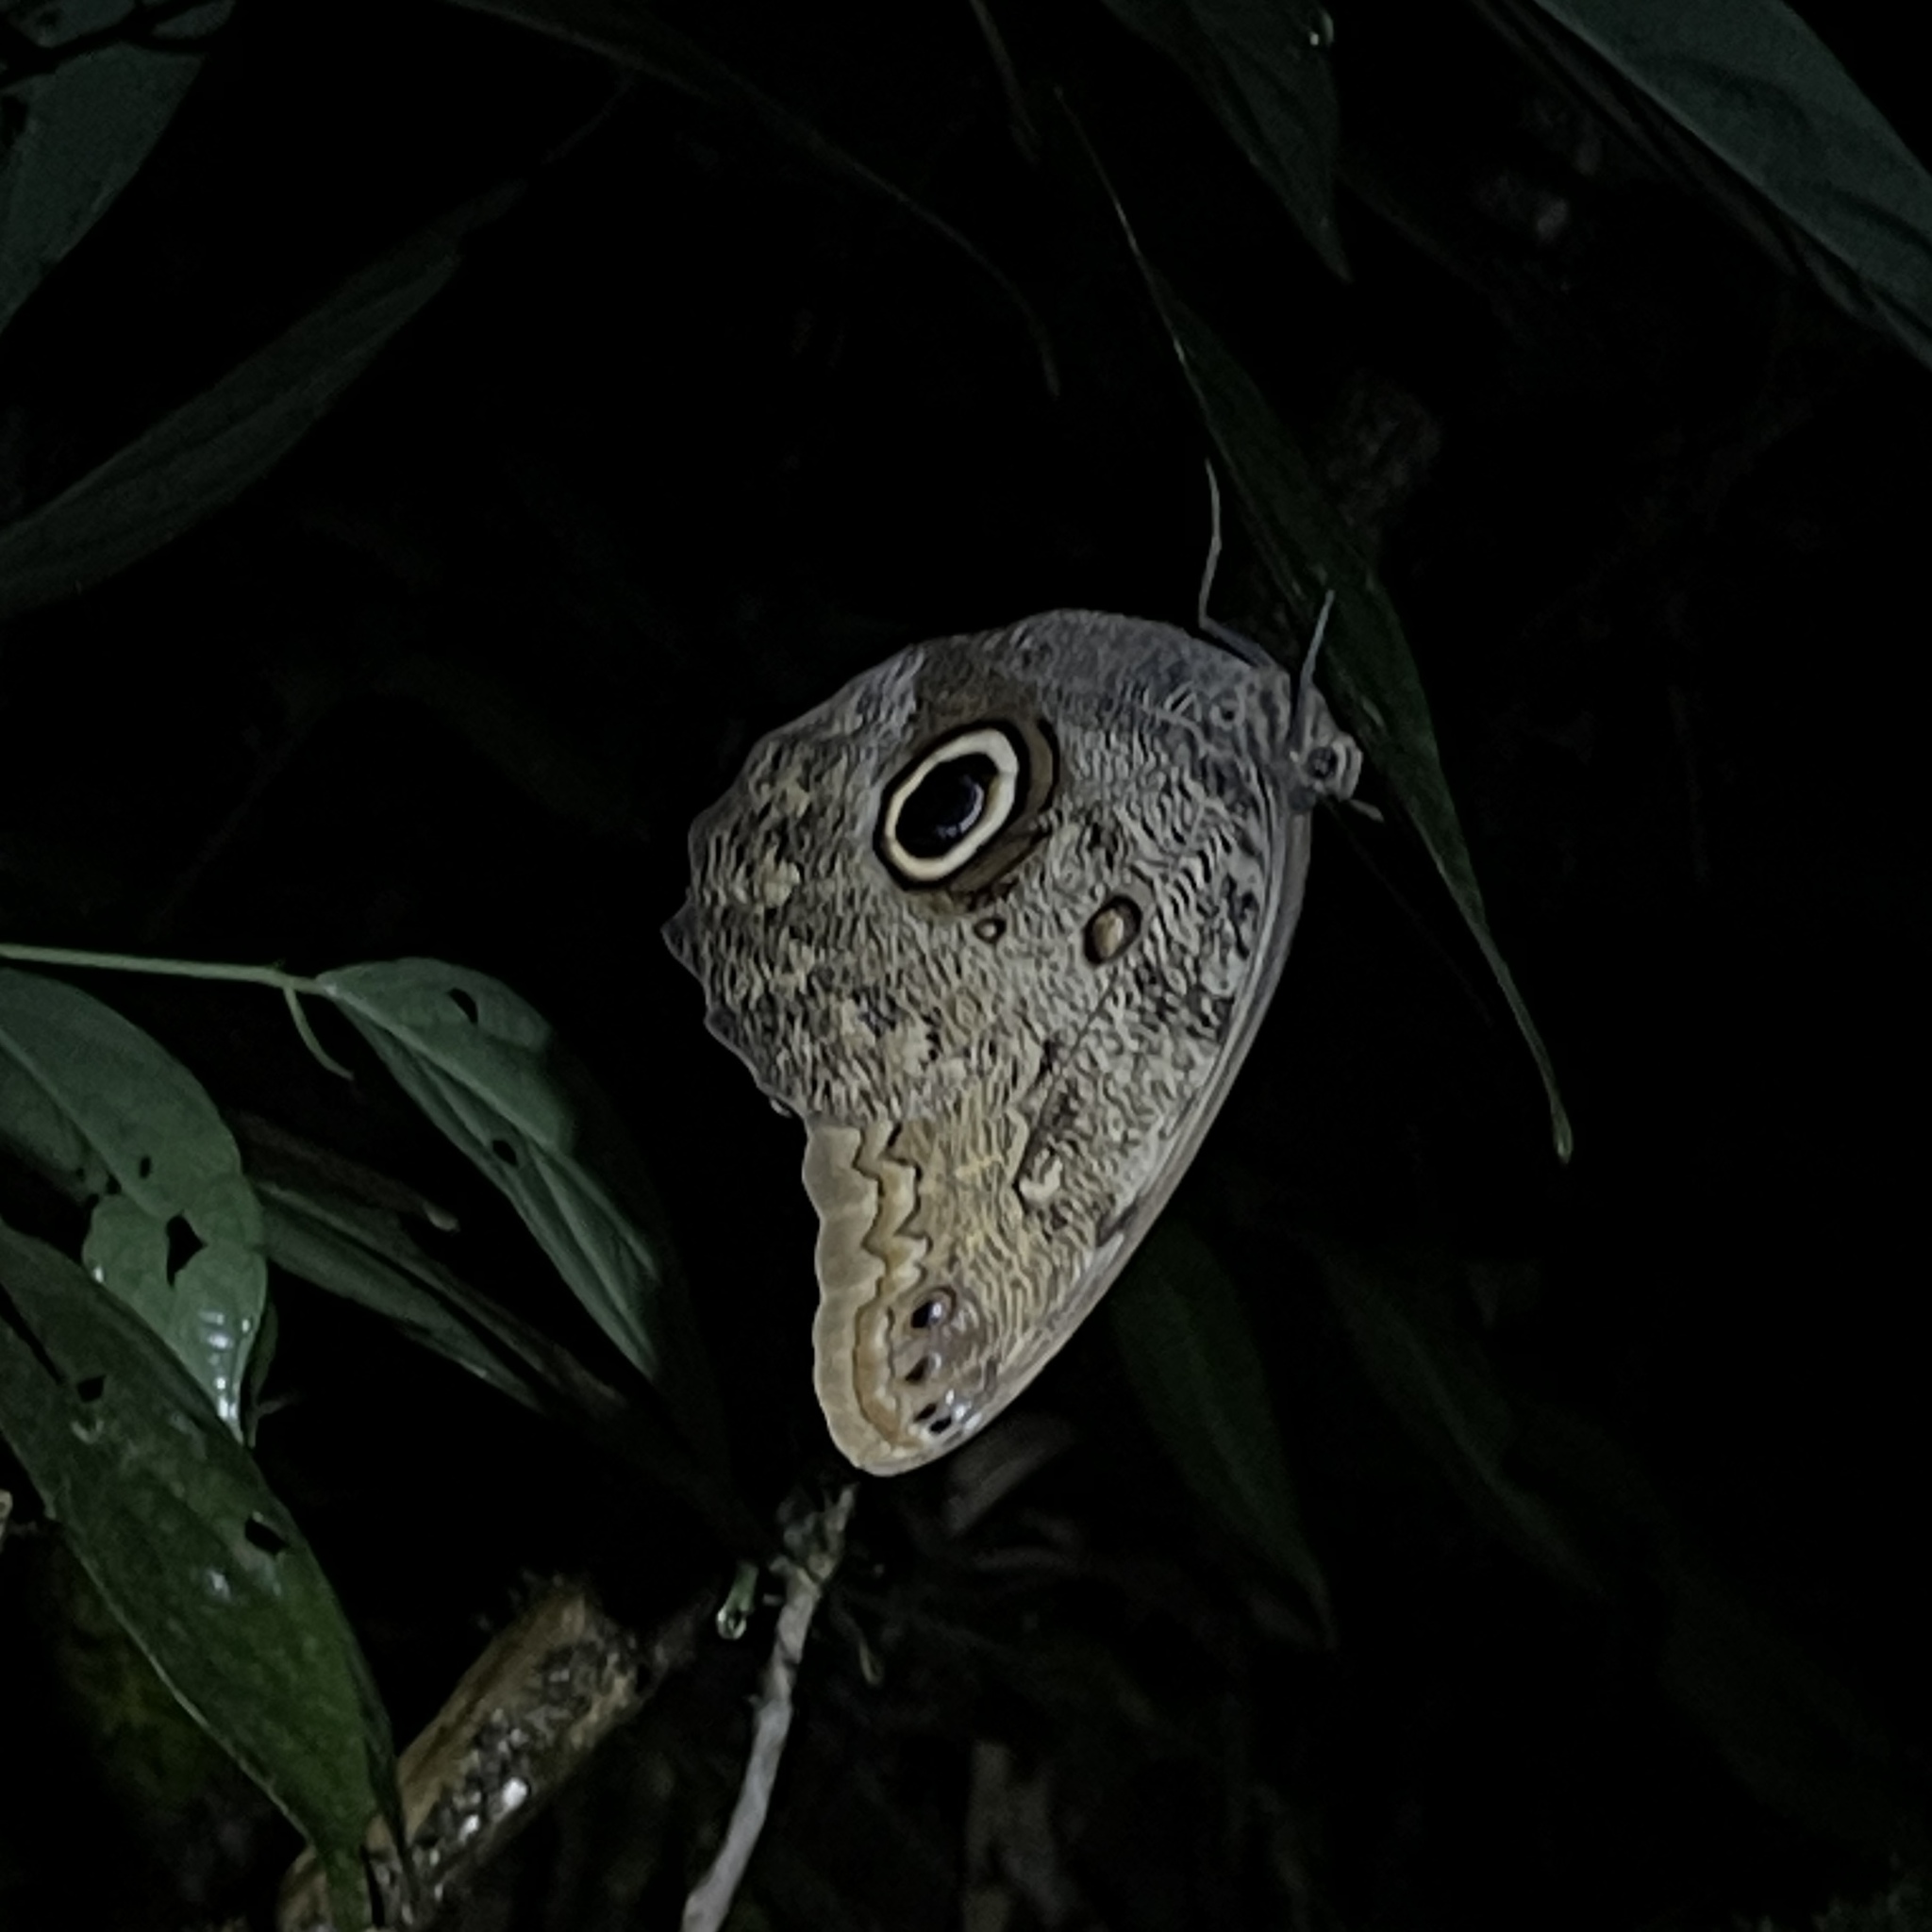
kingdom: Animalia
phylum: Arthropoda
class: Insecta
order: Lepidoptera
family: Nymphalidae
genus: Caligo
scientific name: Caligo brasiliensis
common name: Dark owl-butterfly
